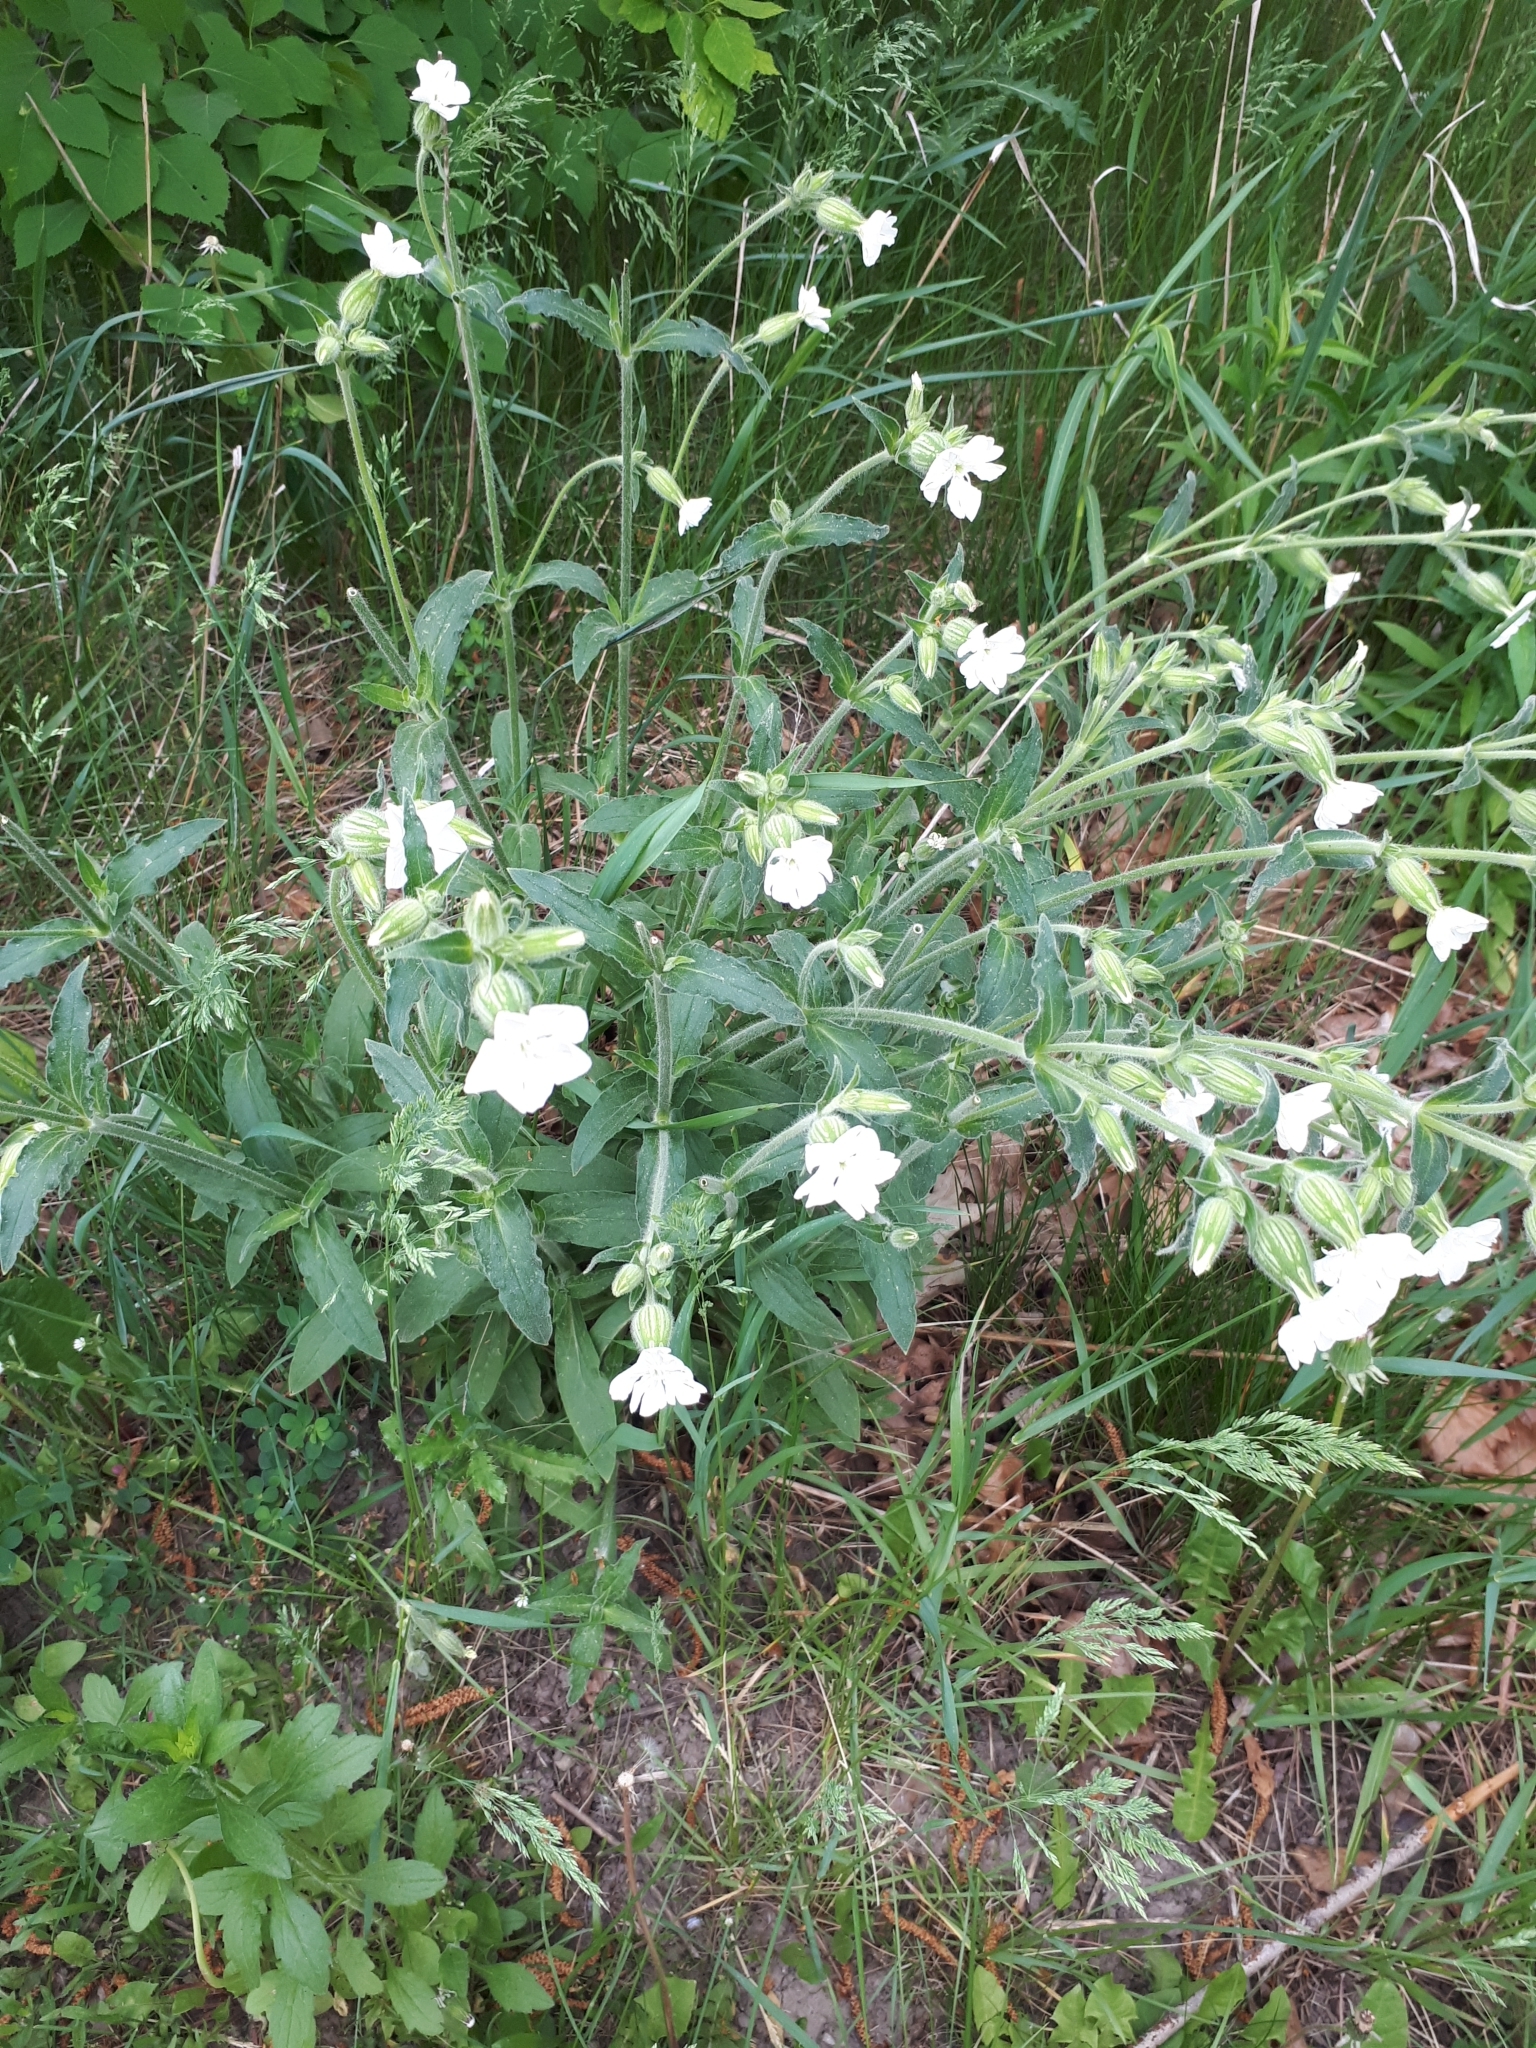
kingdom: Plantae
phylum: Tracheophyta
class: Magnoliopsida
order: Caryophyllales
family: Caryophyllaceae
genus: Silene
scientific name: Silene latifolia
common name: White campion
